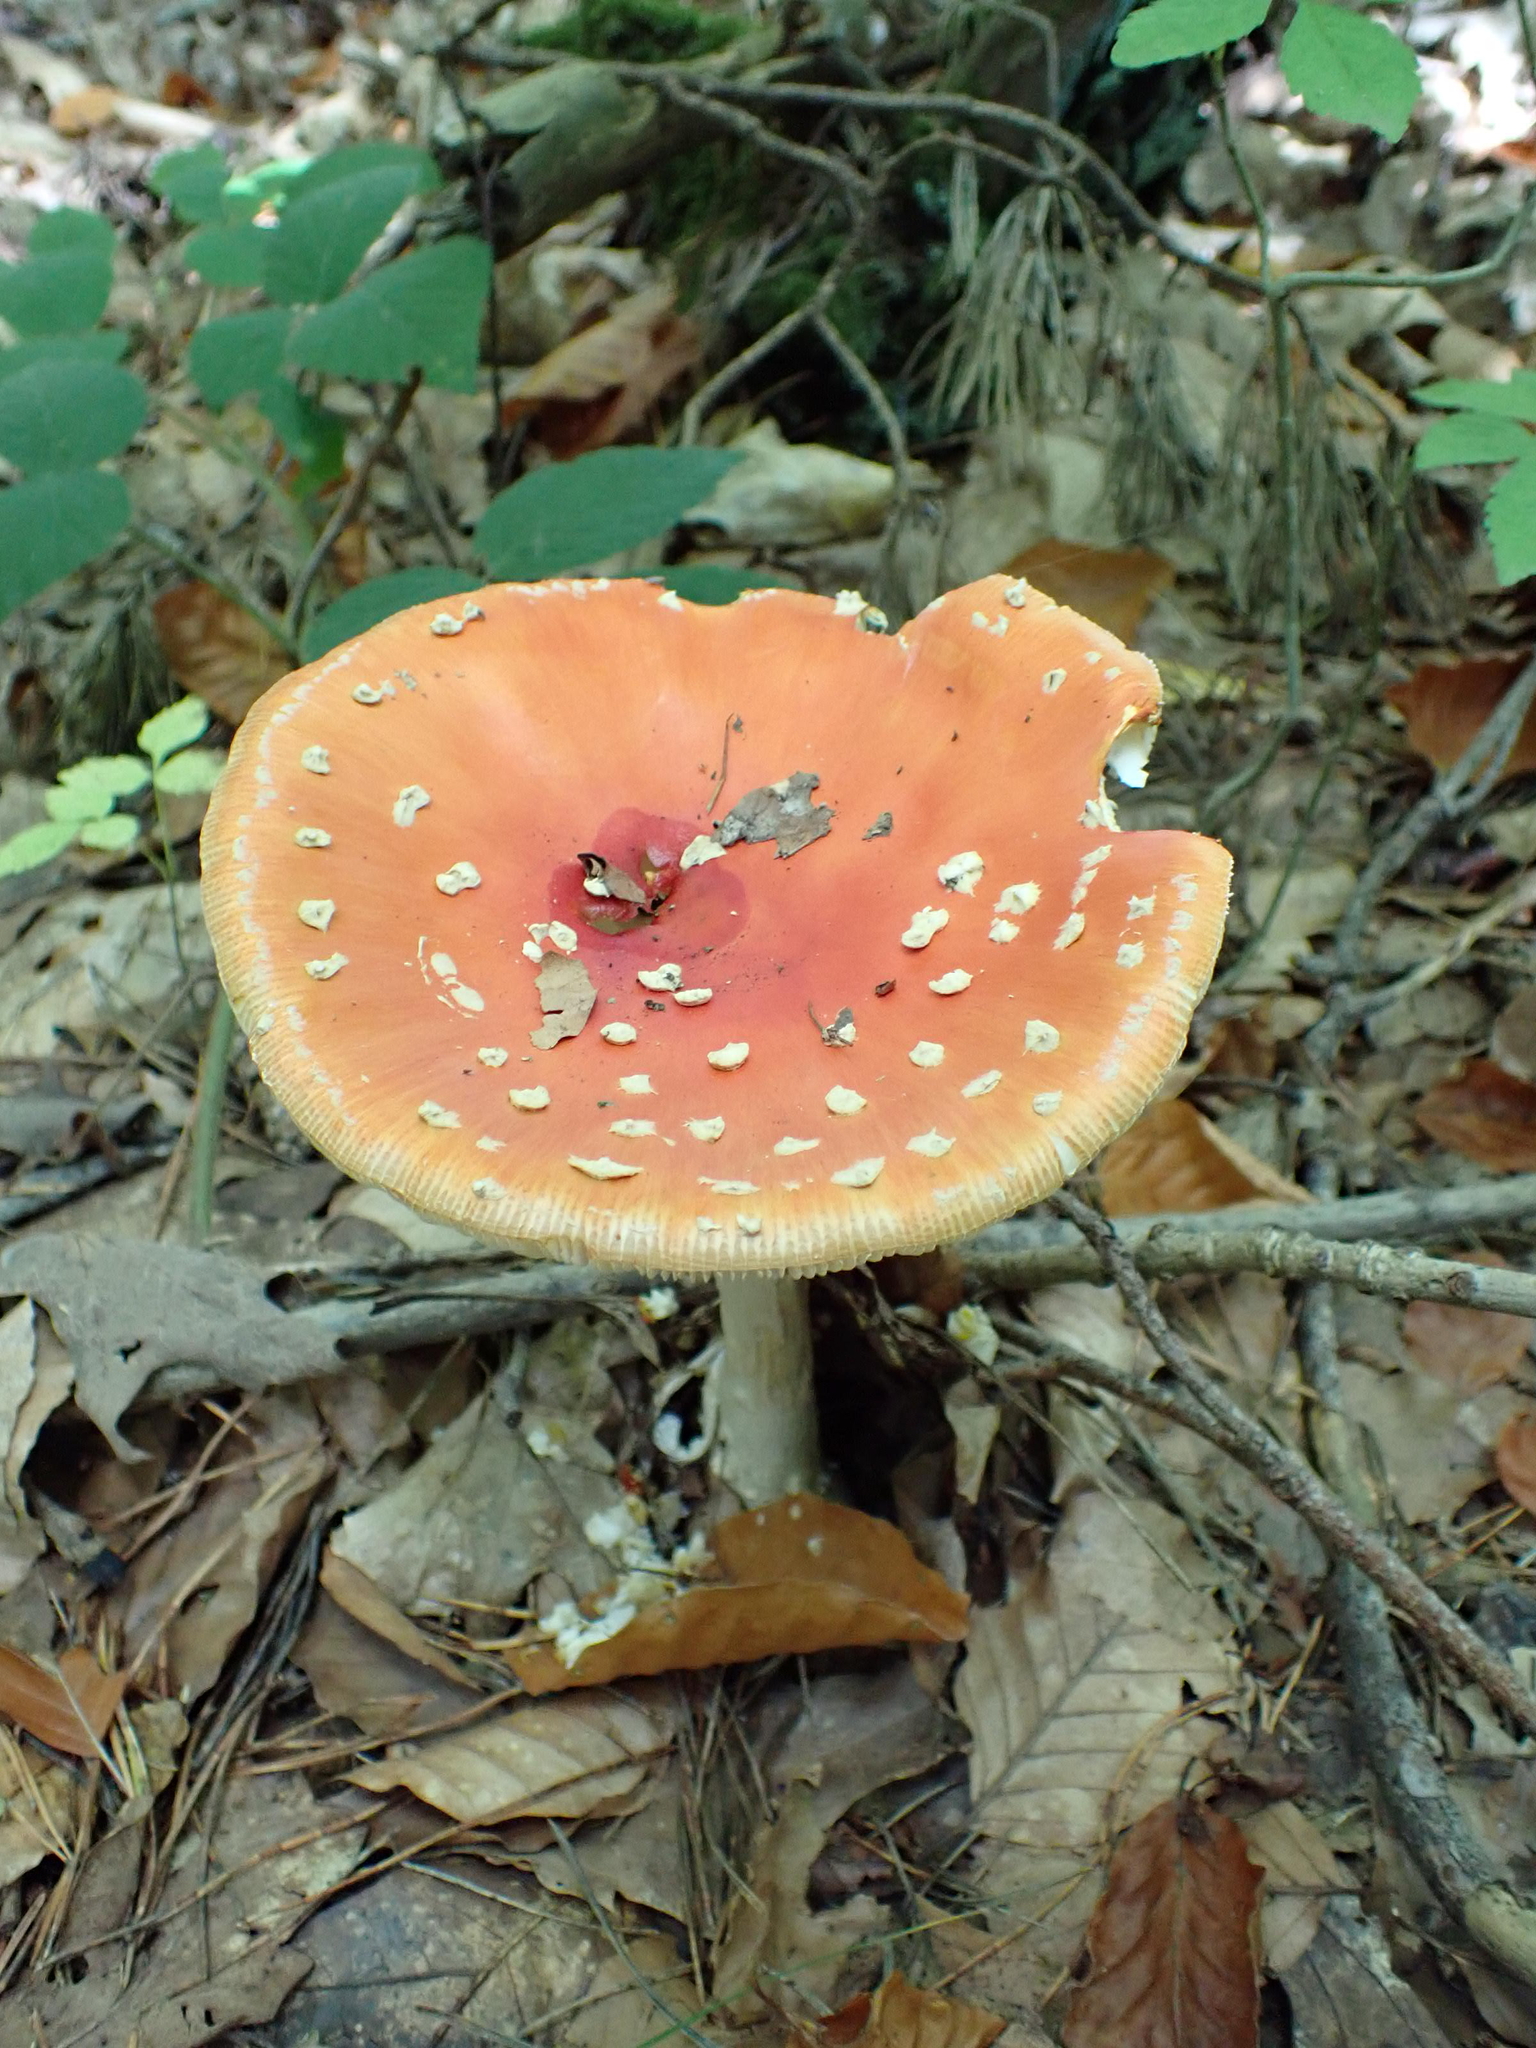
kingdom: Fungi
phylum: Basidiomycota
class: Agaricomycetes
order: Agaricales
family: Amanitaceae
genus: Amanita
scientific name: Amanita muscaria
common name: Fly agaric
